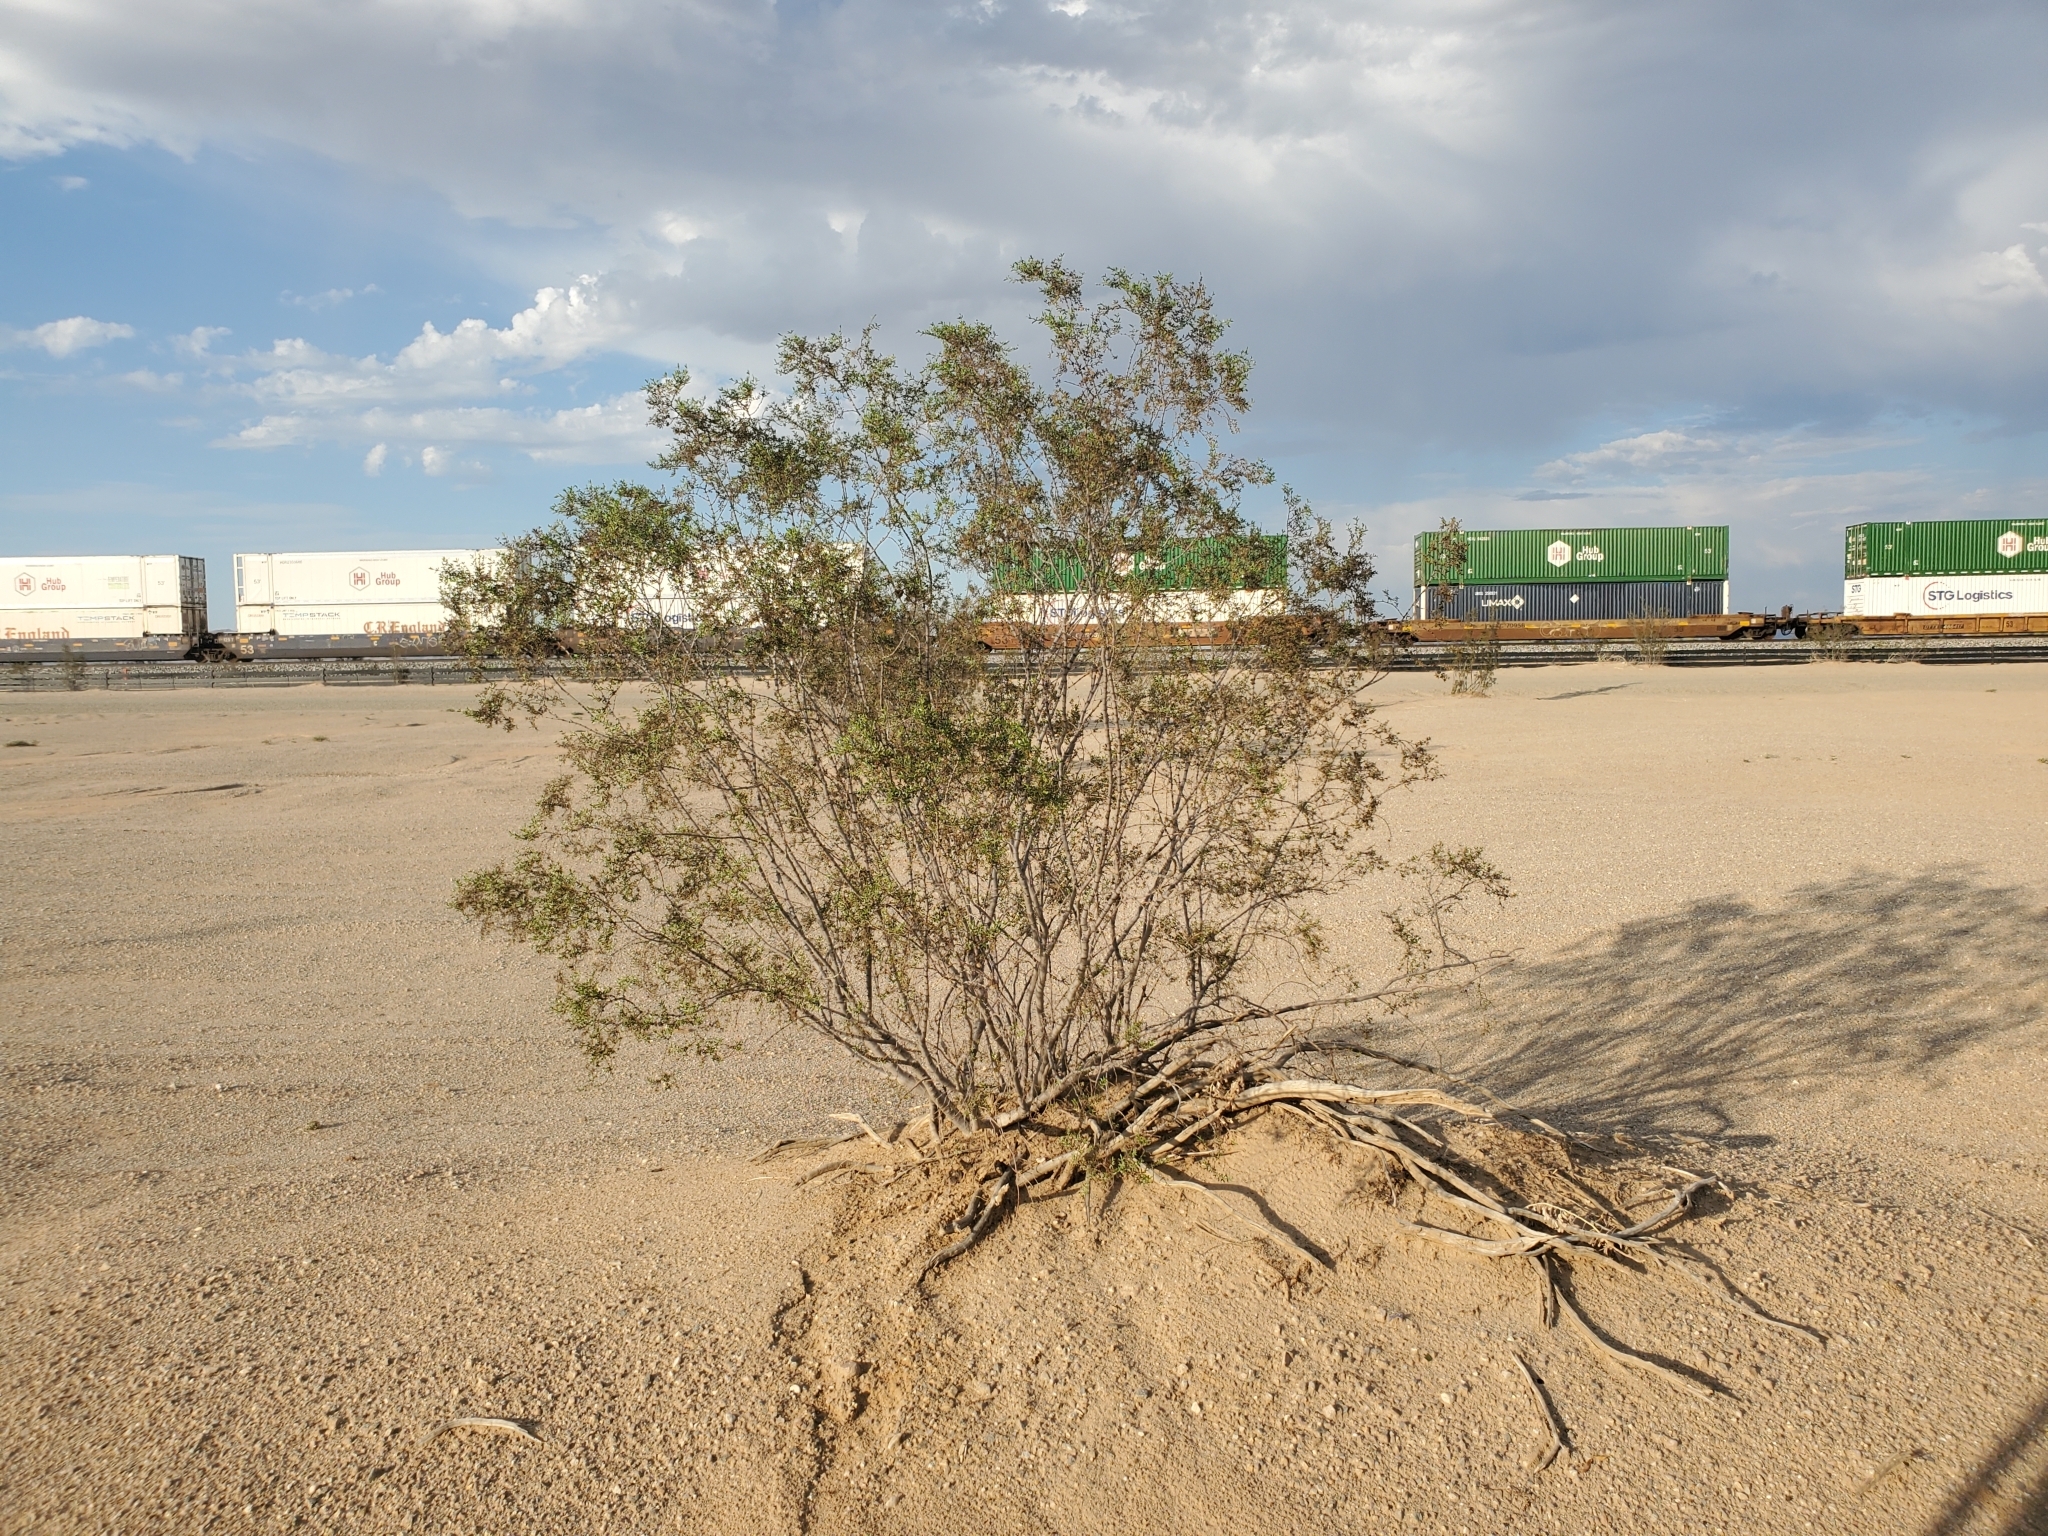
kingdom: Plantae
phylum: Tracheophyta
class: Magnoliopsida
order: Zygophyllales
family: Zygophyllaceae
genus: Larrea
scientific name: Larrea tridentata
